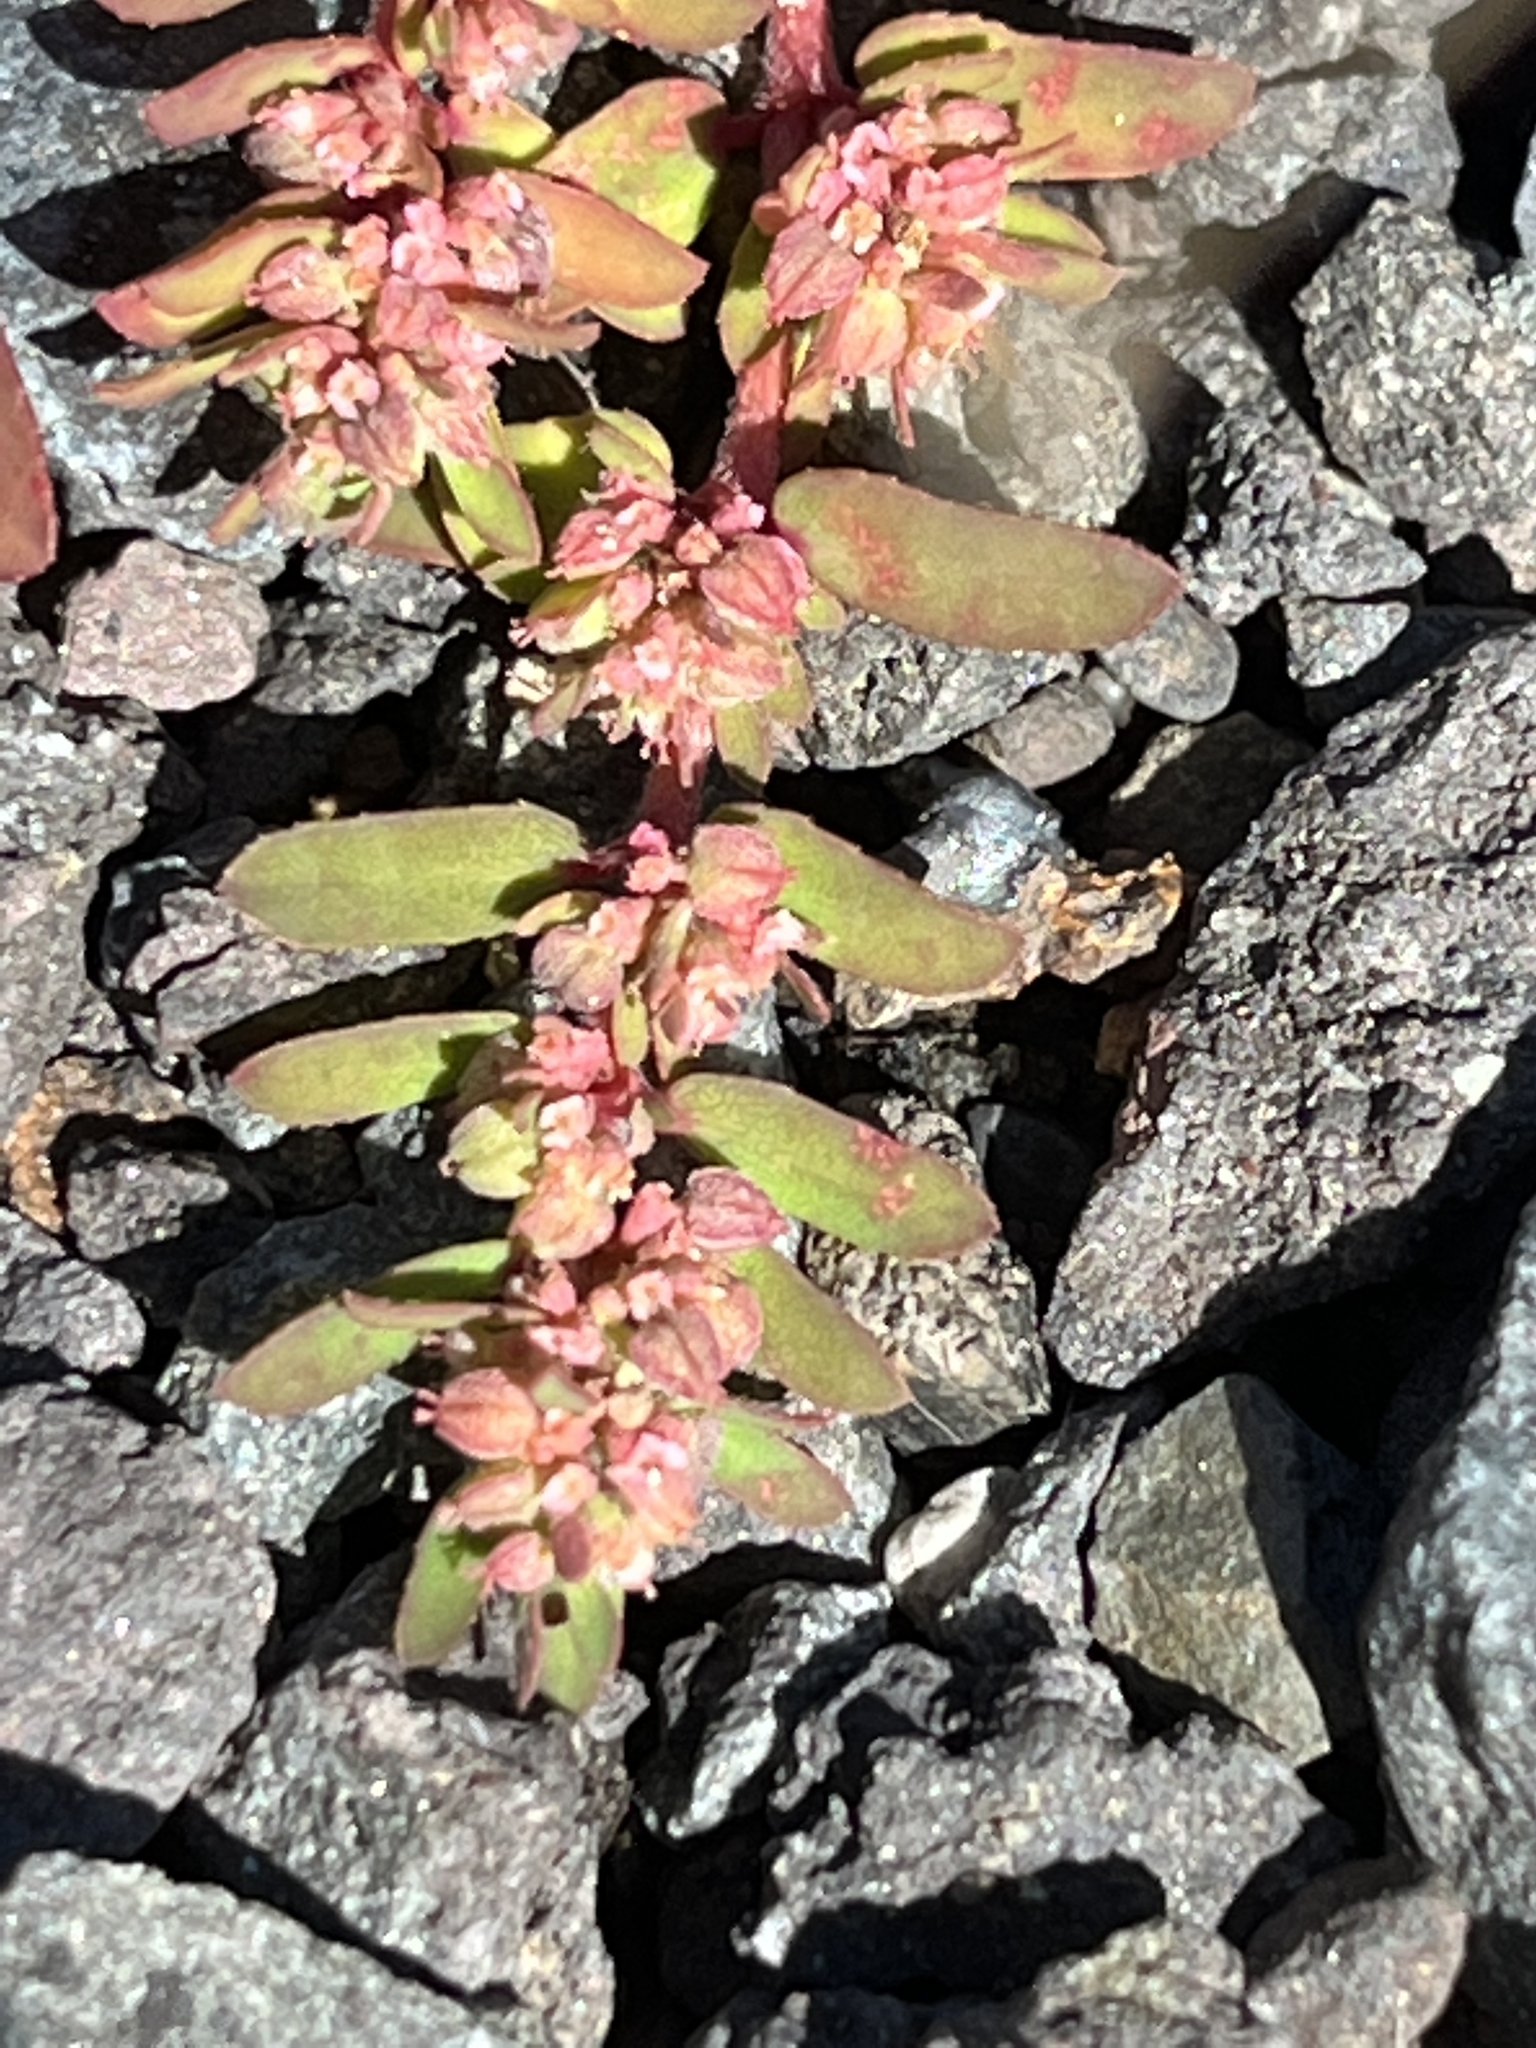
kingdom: Plantae
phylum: Tracheophyta
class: Magnoliopsida
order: Malpighiales
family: Euphorbiaceae
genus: Euphorbia
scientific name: Euphorbia maculata
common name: Spotted spurge
